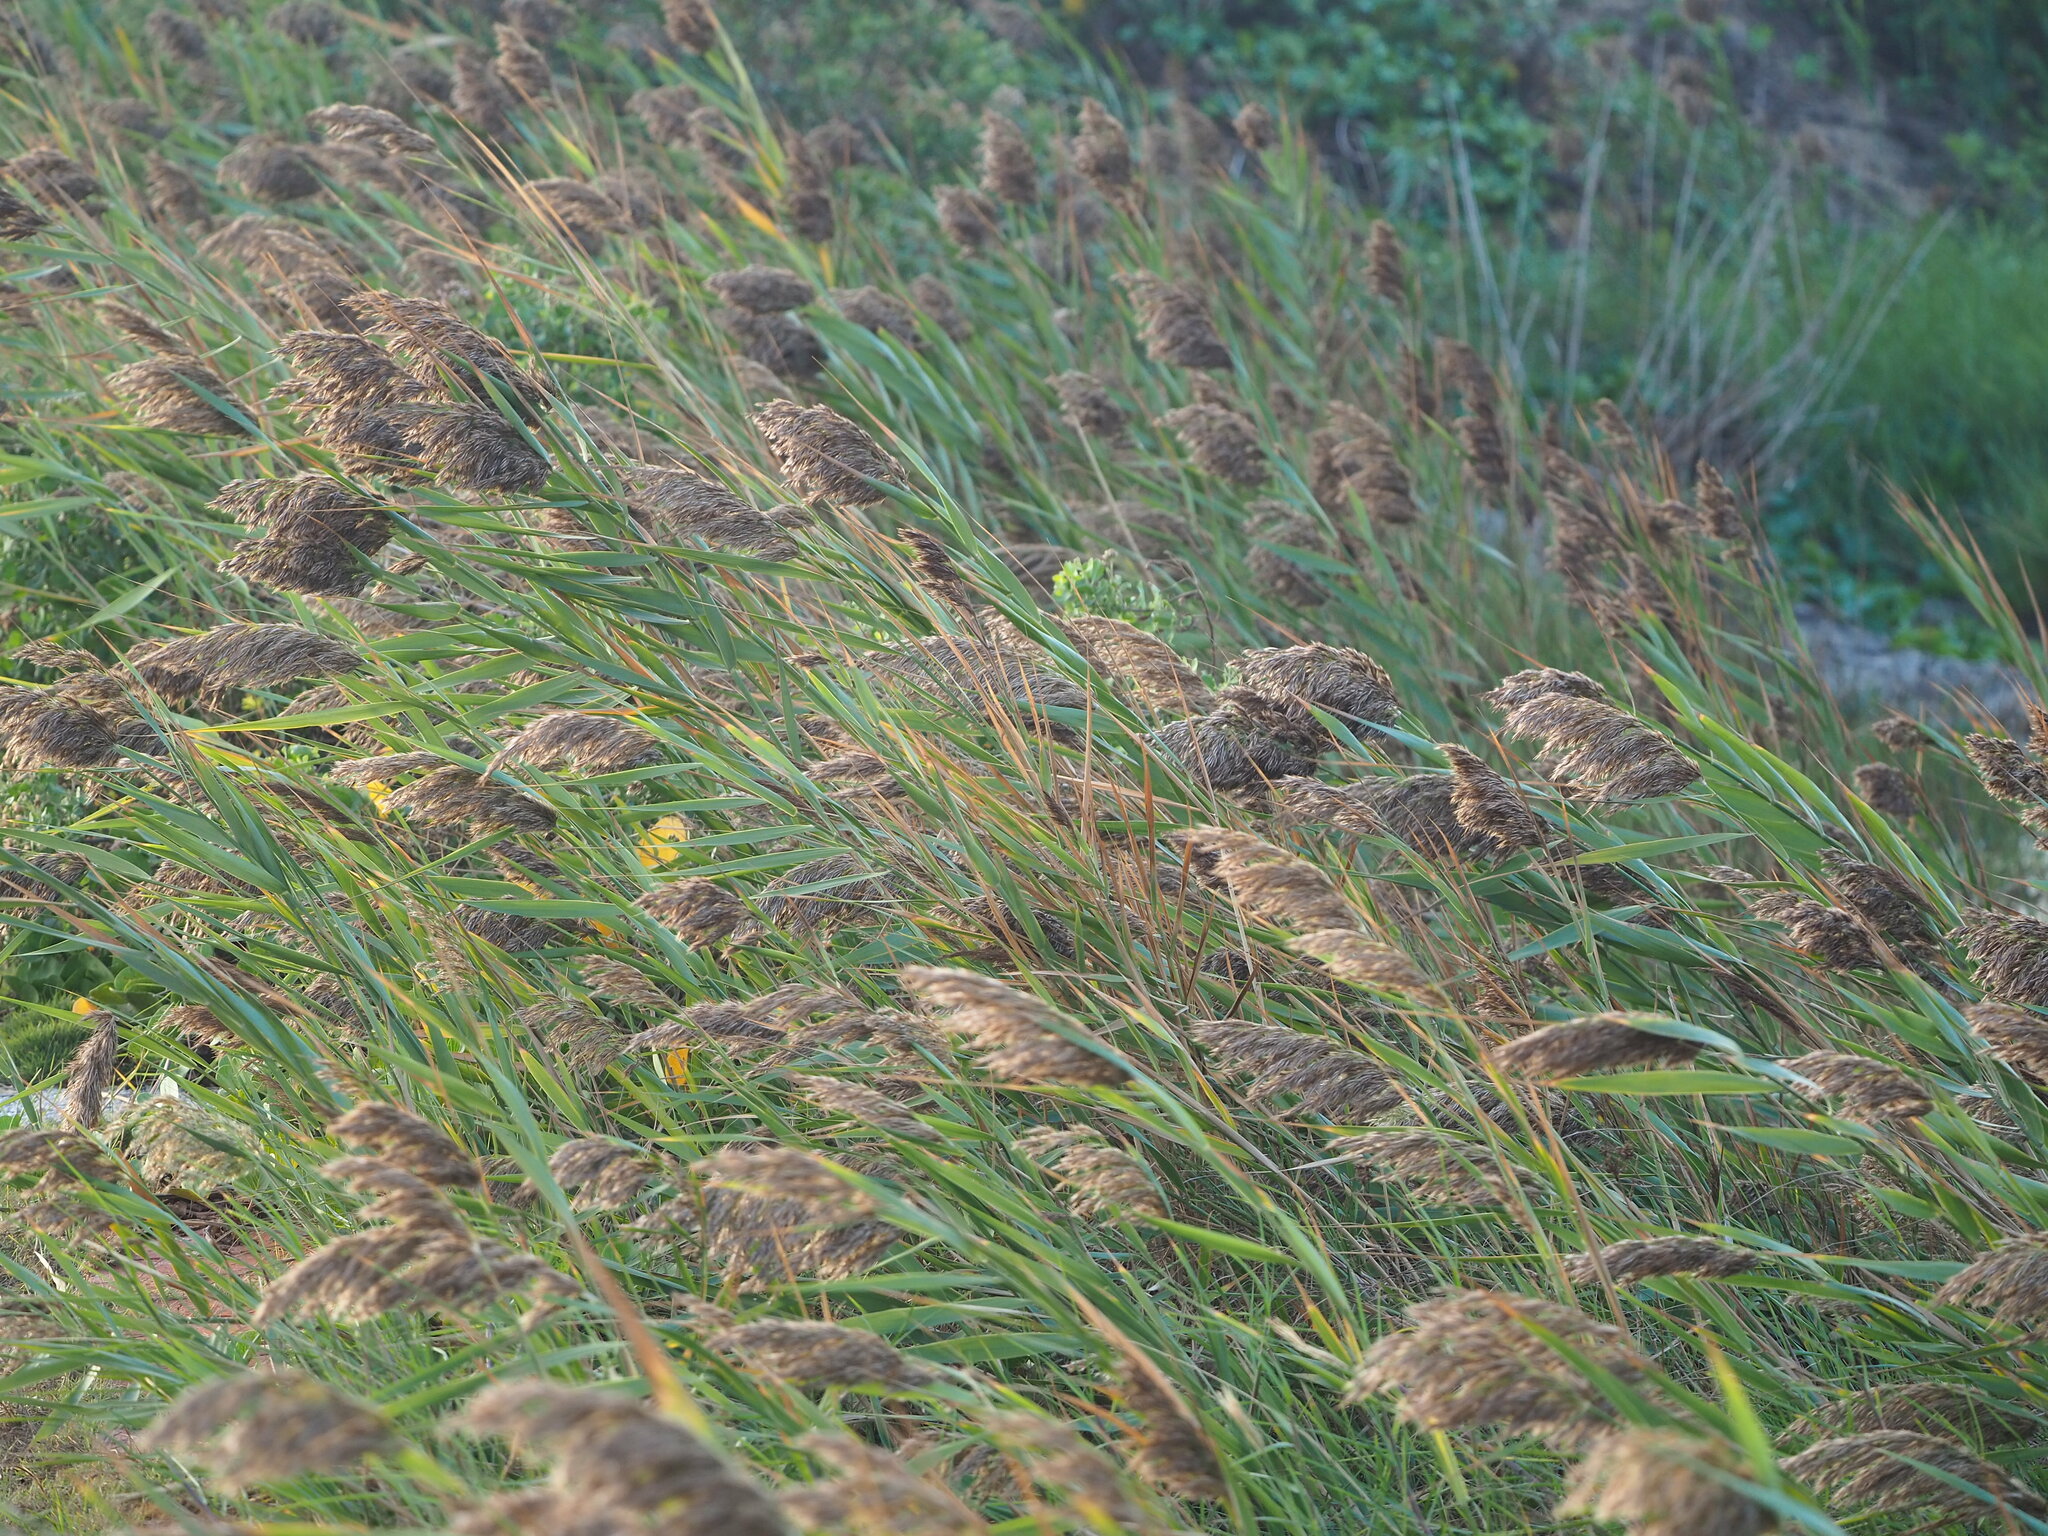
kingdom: Plantae
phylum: Tracheophyta
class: Liliopsida
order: Poales
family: Poaceae
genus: Phragmites
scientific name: Phragmites australis
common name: Common reed
